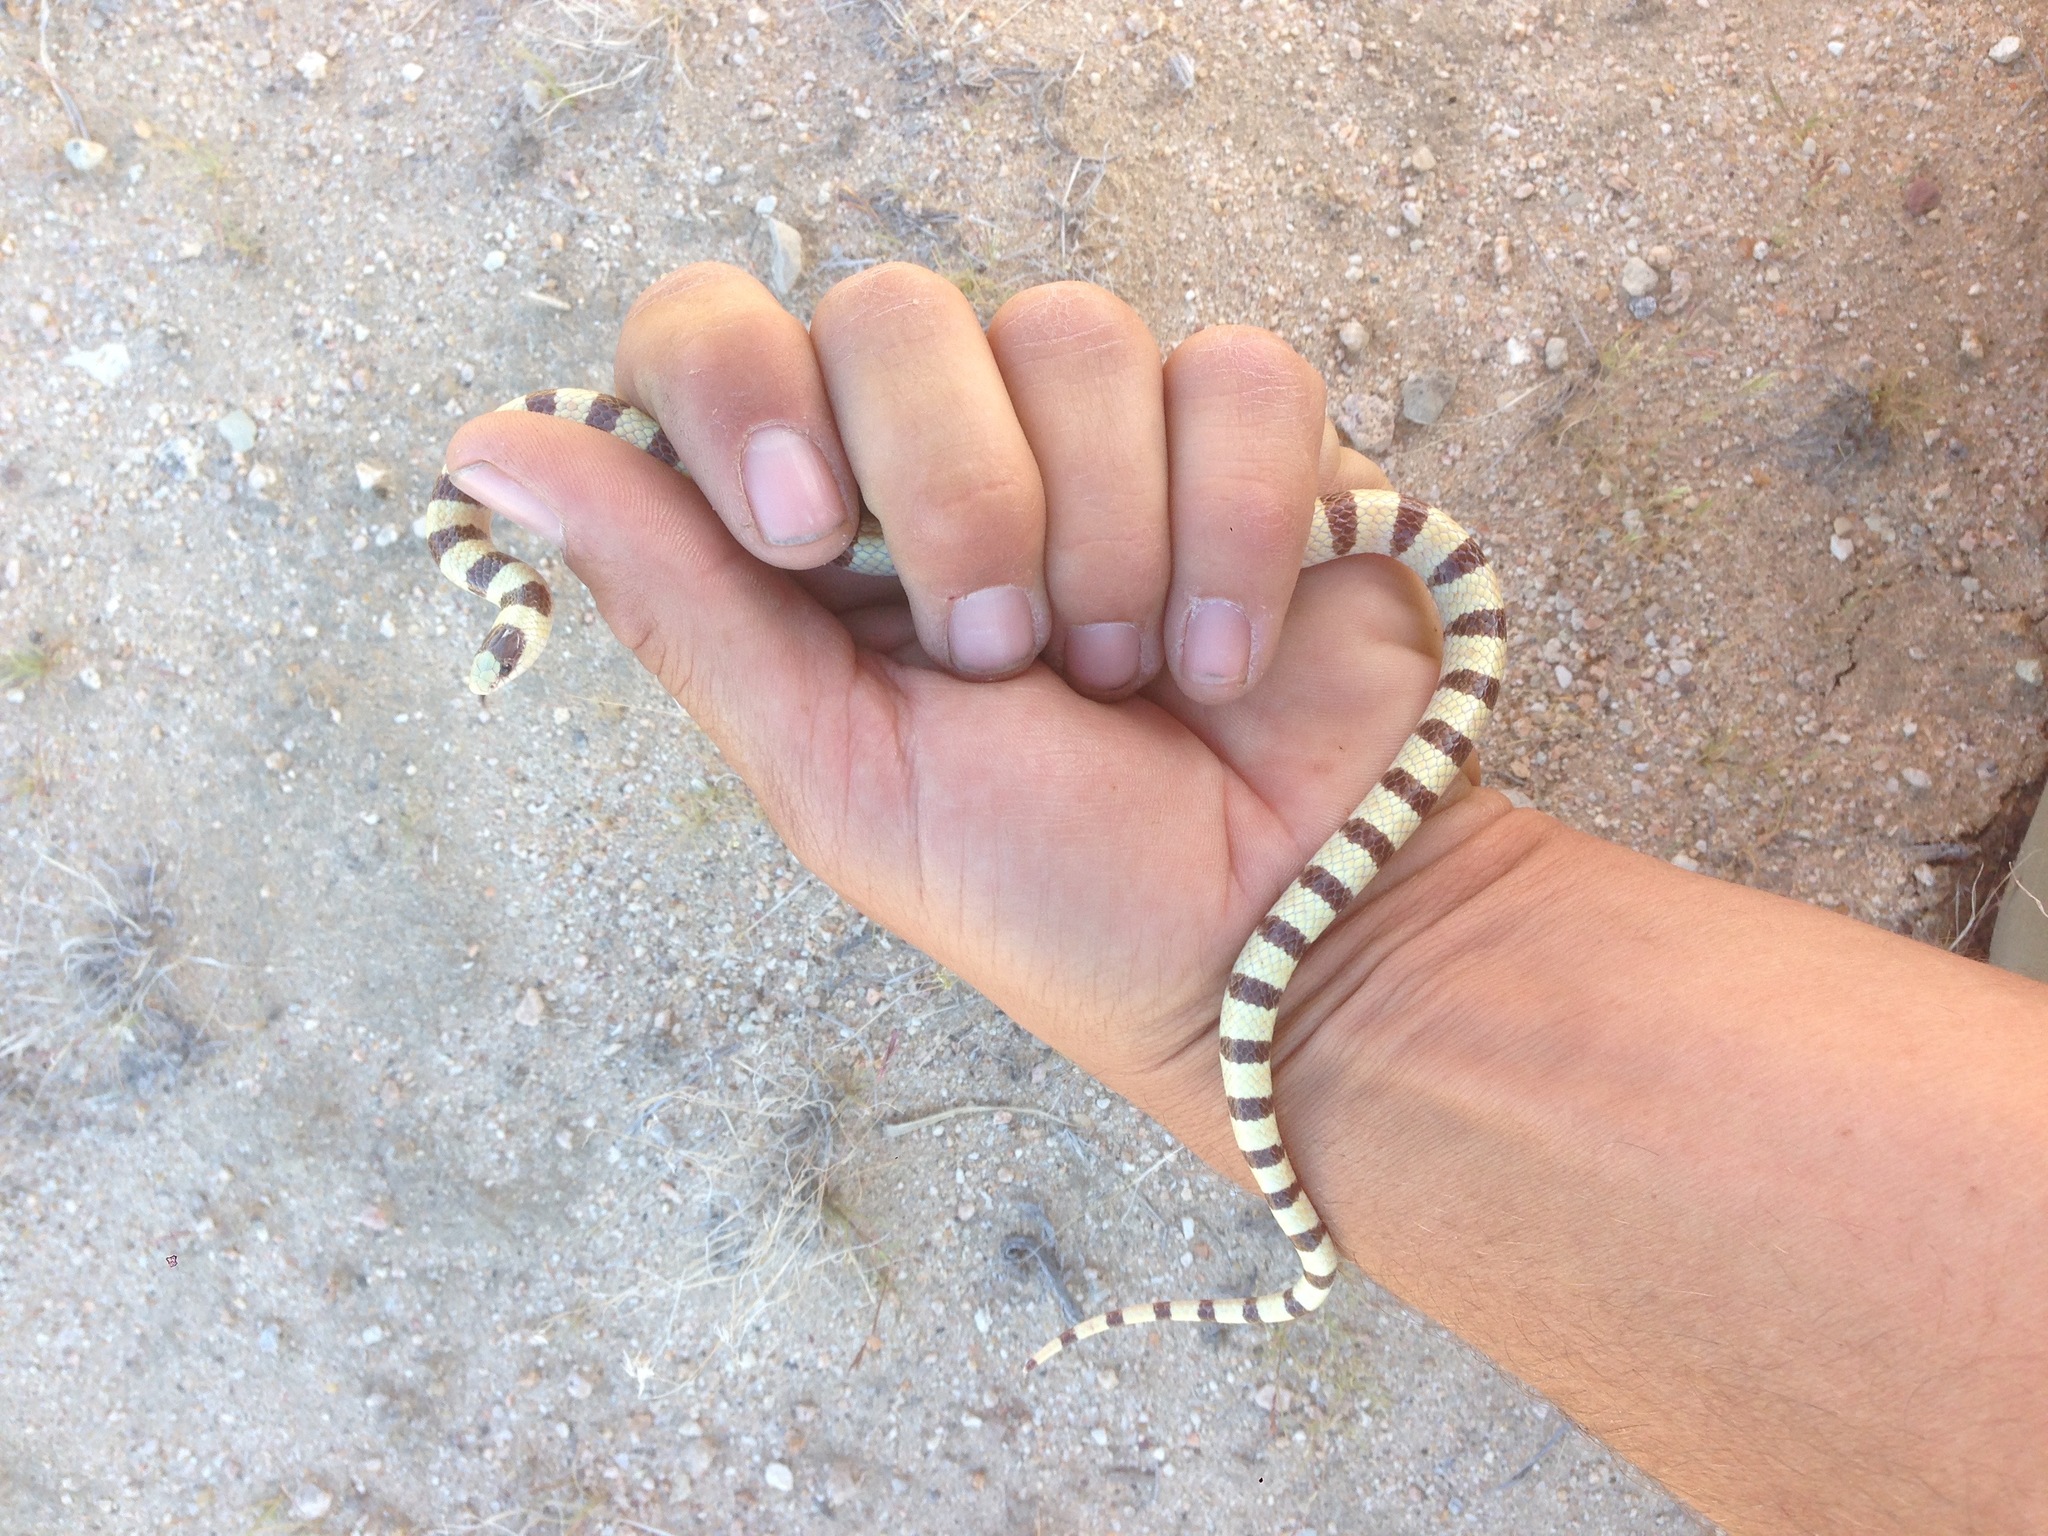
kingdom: Animalia
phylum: Chordata
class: Squamata
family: Colubridae
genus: Sonora
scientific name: Sonora occipitalis
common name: Western shovelnose snake
